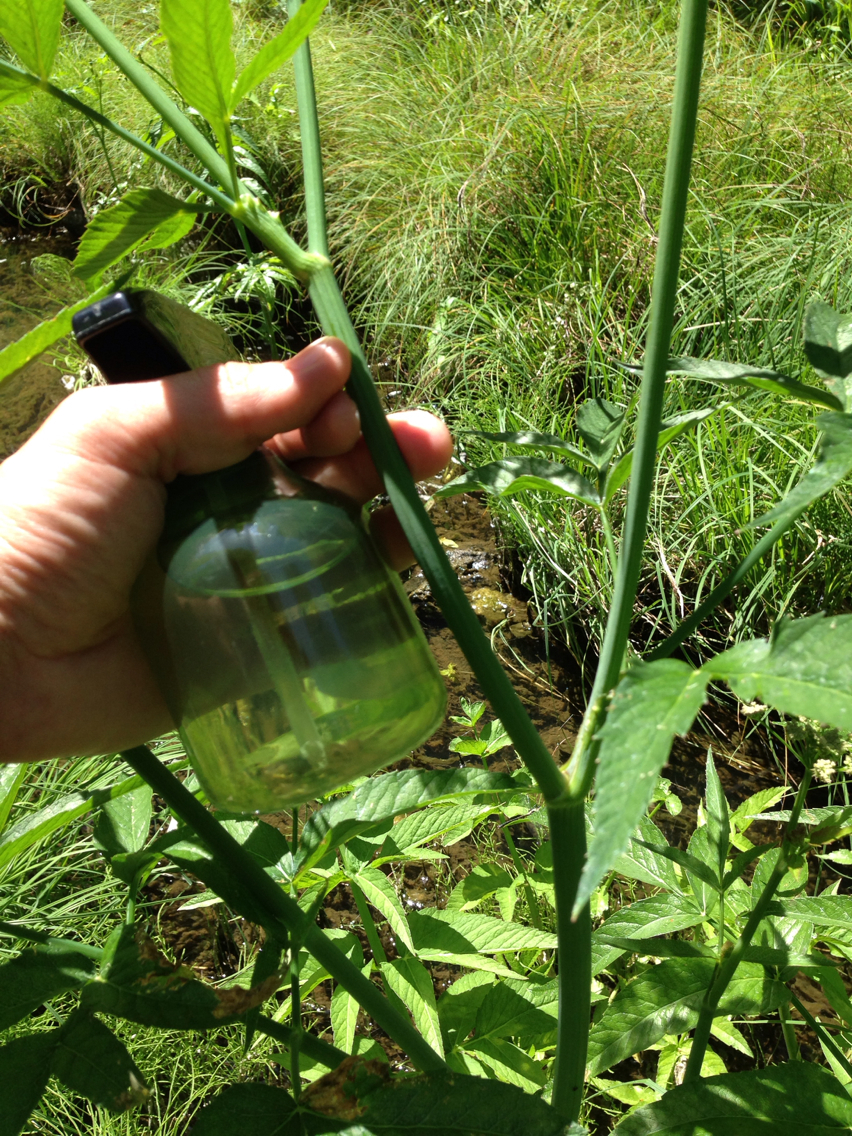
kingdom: Plantae
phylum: Tracheophyta
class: Magnoliopsida
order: Apiales
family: Apiaceae
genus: Cicuta
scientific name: Cicuta douglasii
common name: Western water-hemlock
